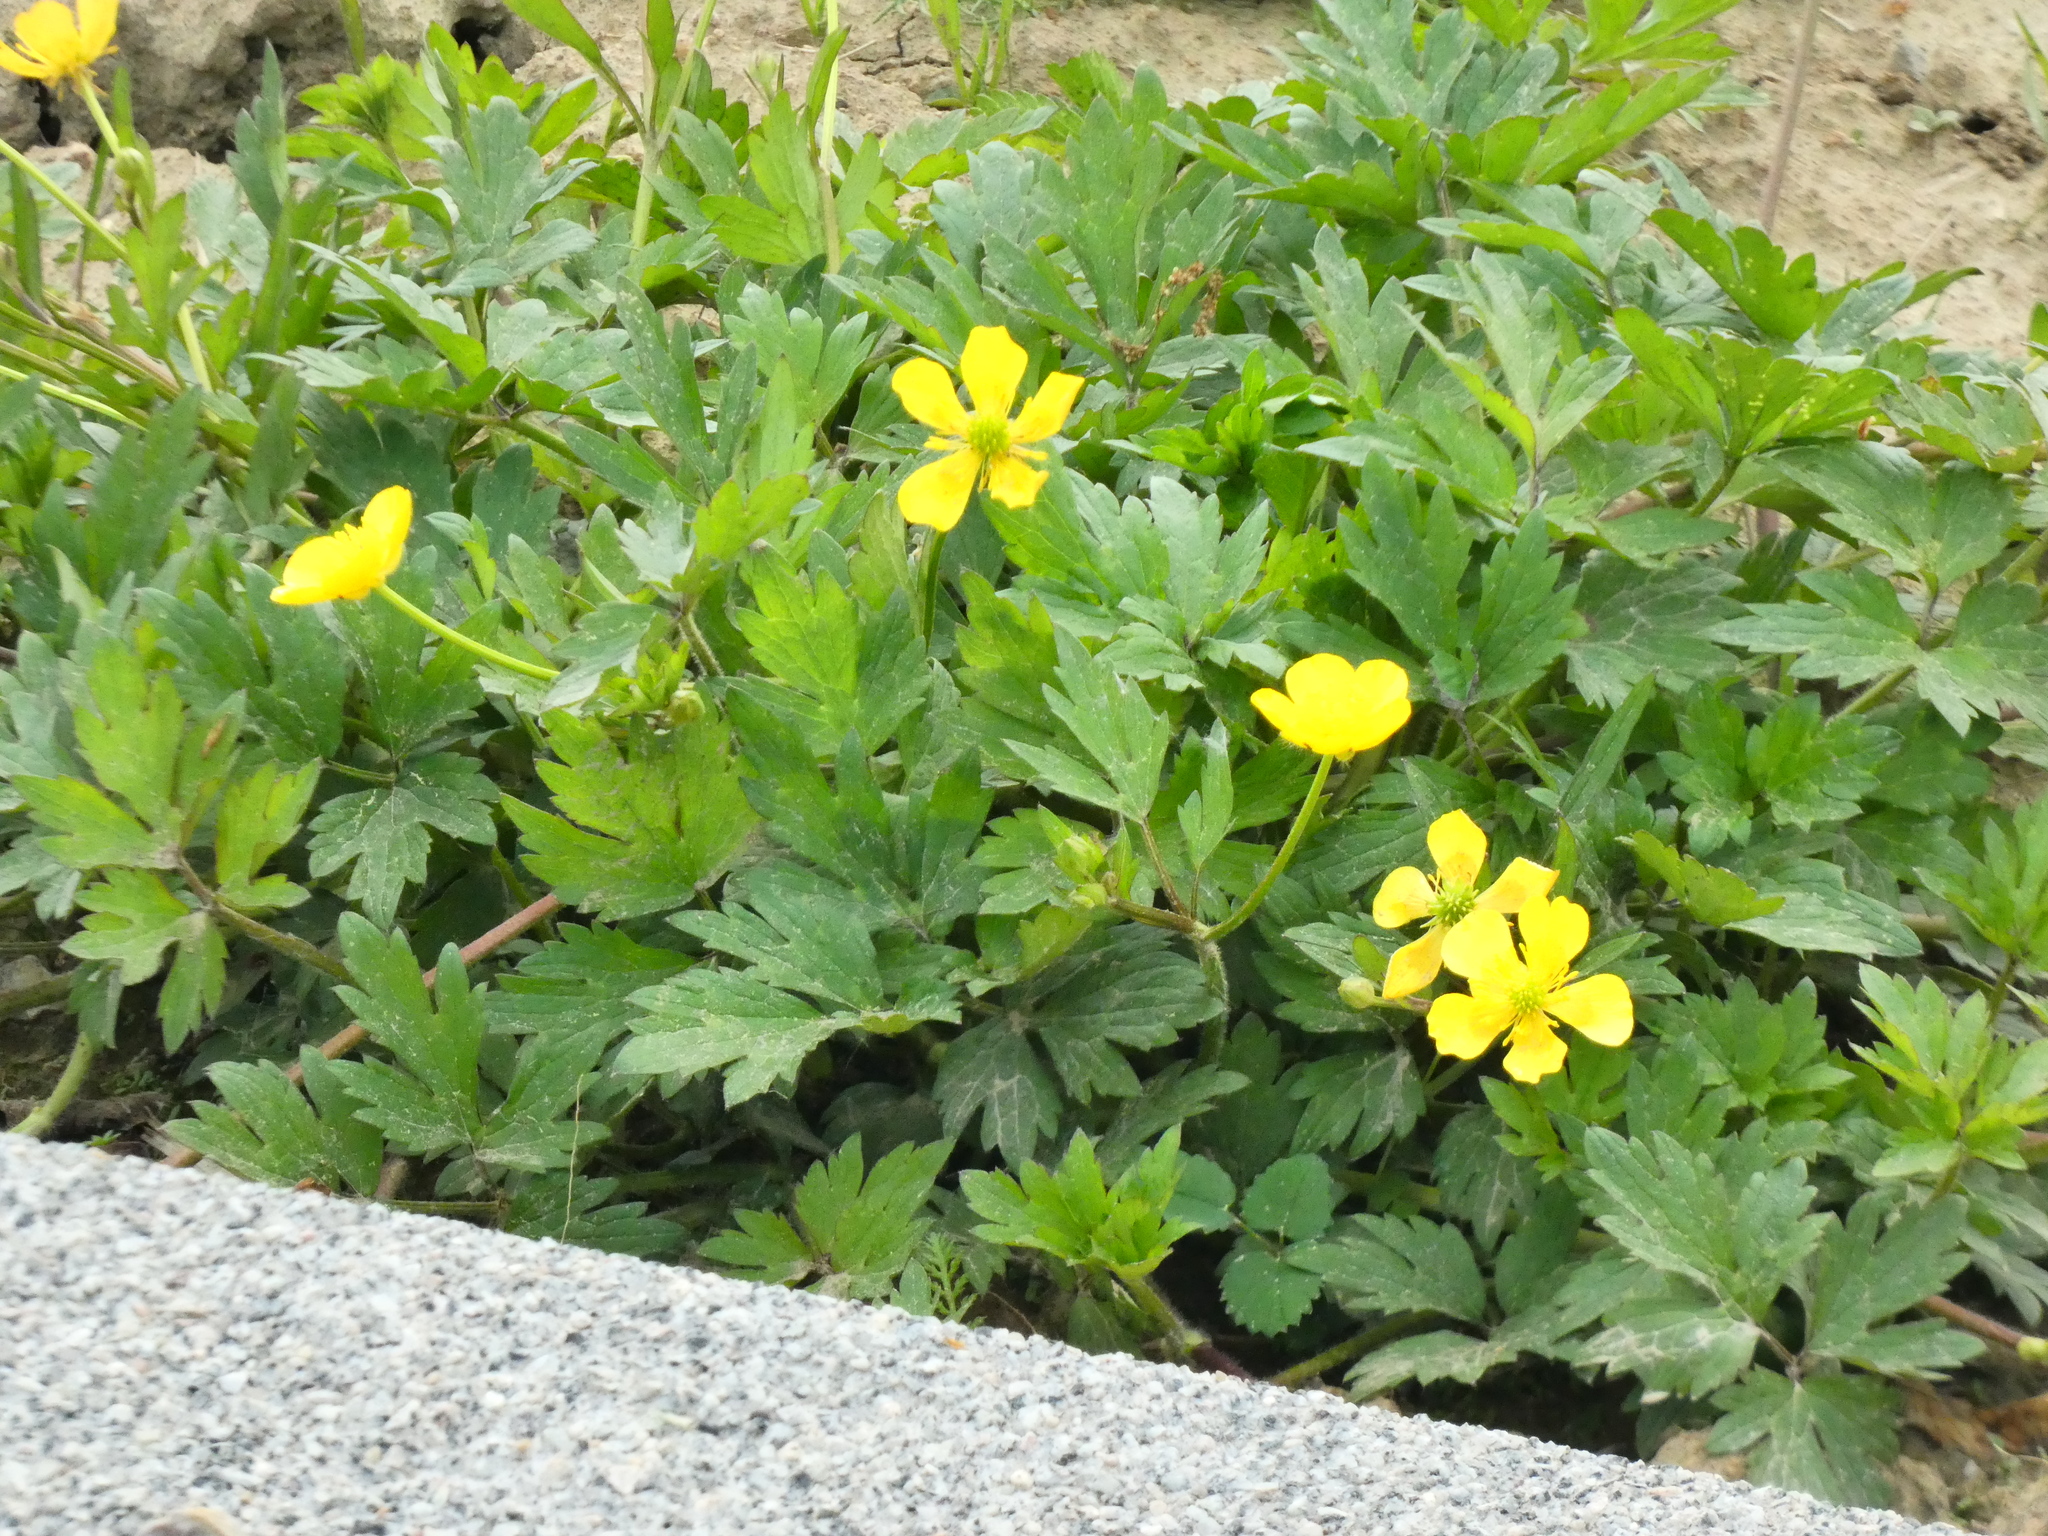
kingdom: Plantae
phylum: Tracheophyta
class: Magnoliopsida
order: Ranunculales
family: Ranunculaceae
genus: Ranunculus
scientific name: Ranunculus repens
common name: Creeping buttercup
